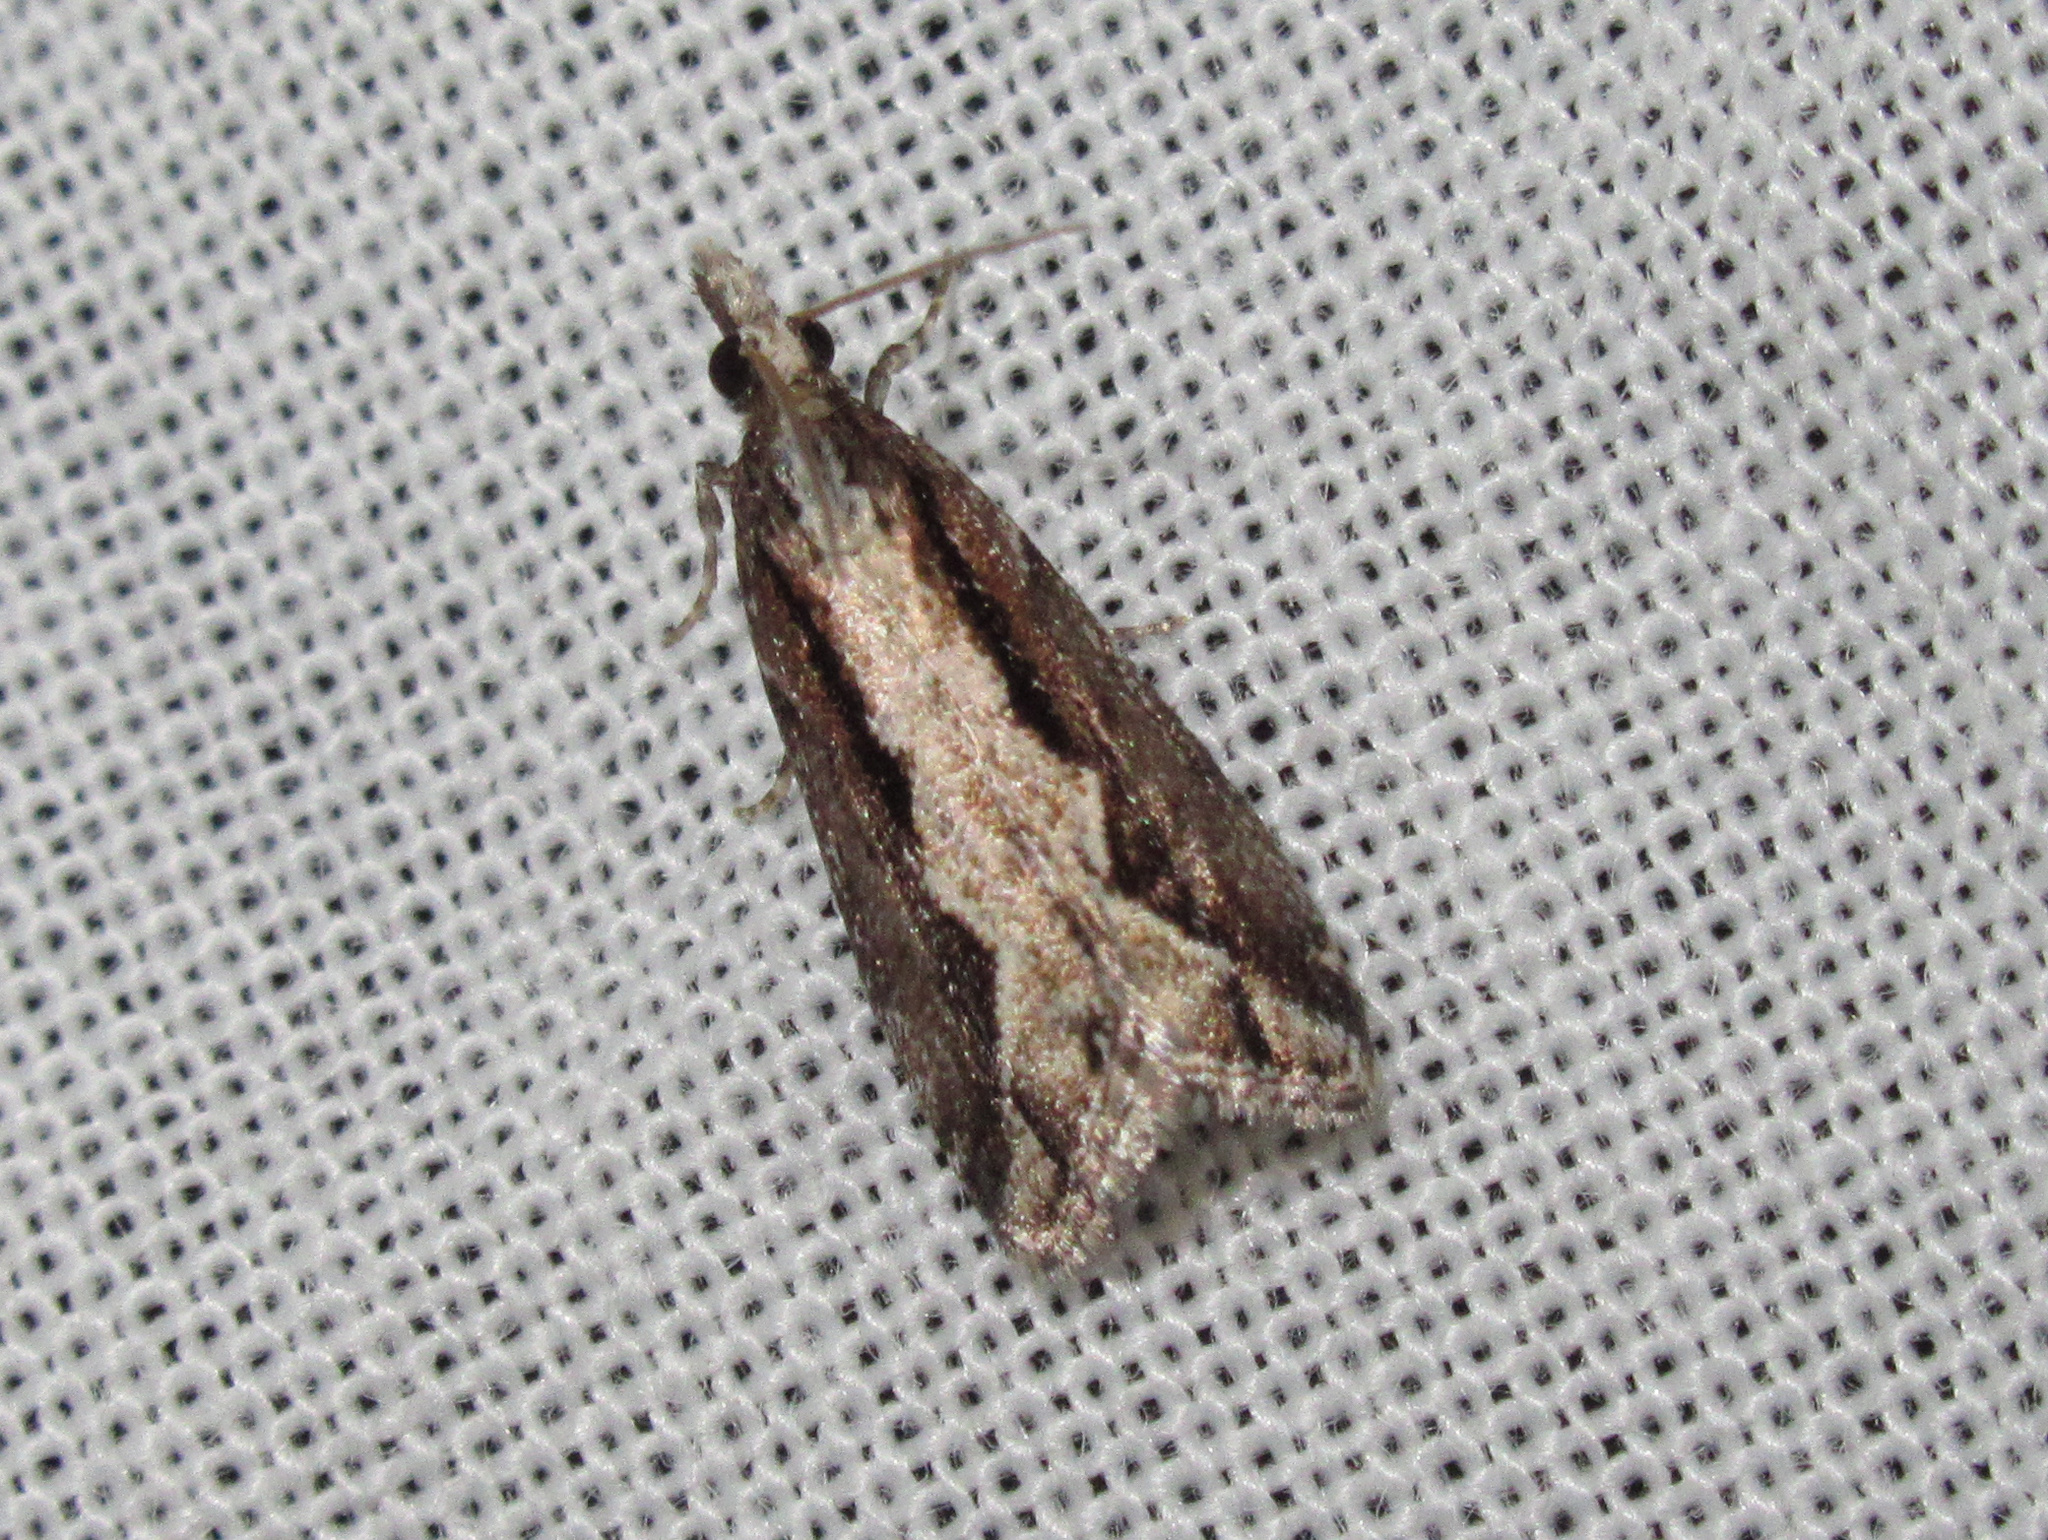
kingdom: Animalia
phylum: Arthropoda
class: Insecta
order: Lepidoptera
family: Crambidae
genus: Eudonia
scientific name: Eudonia steropaea
